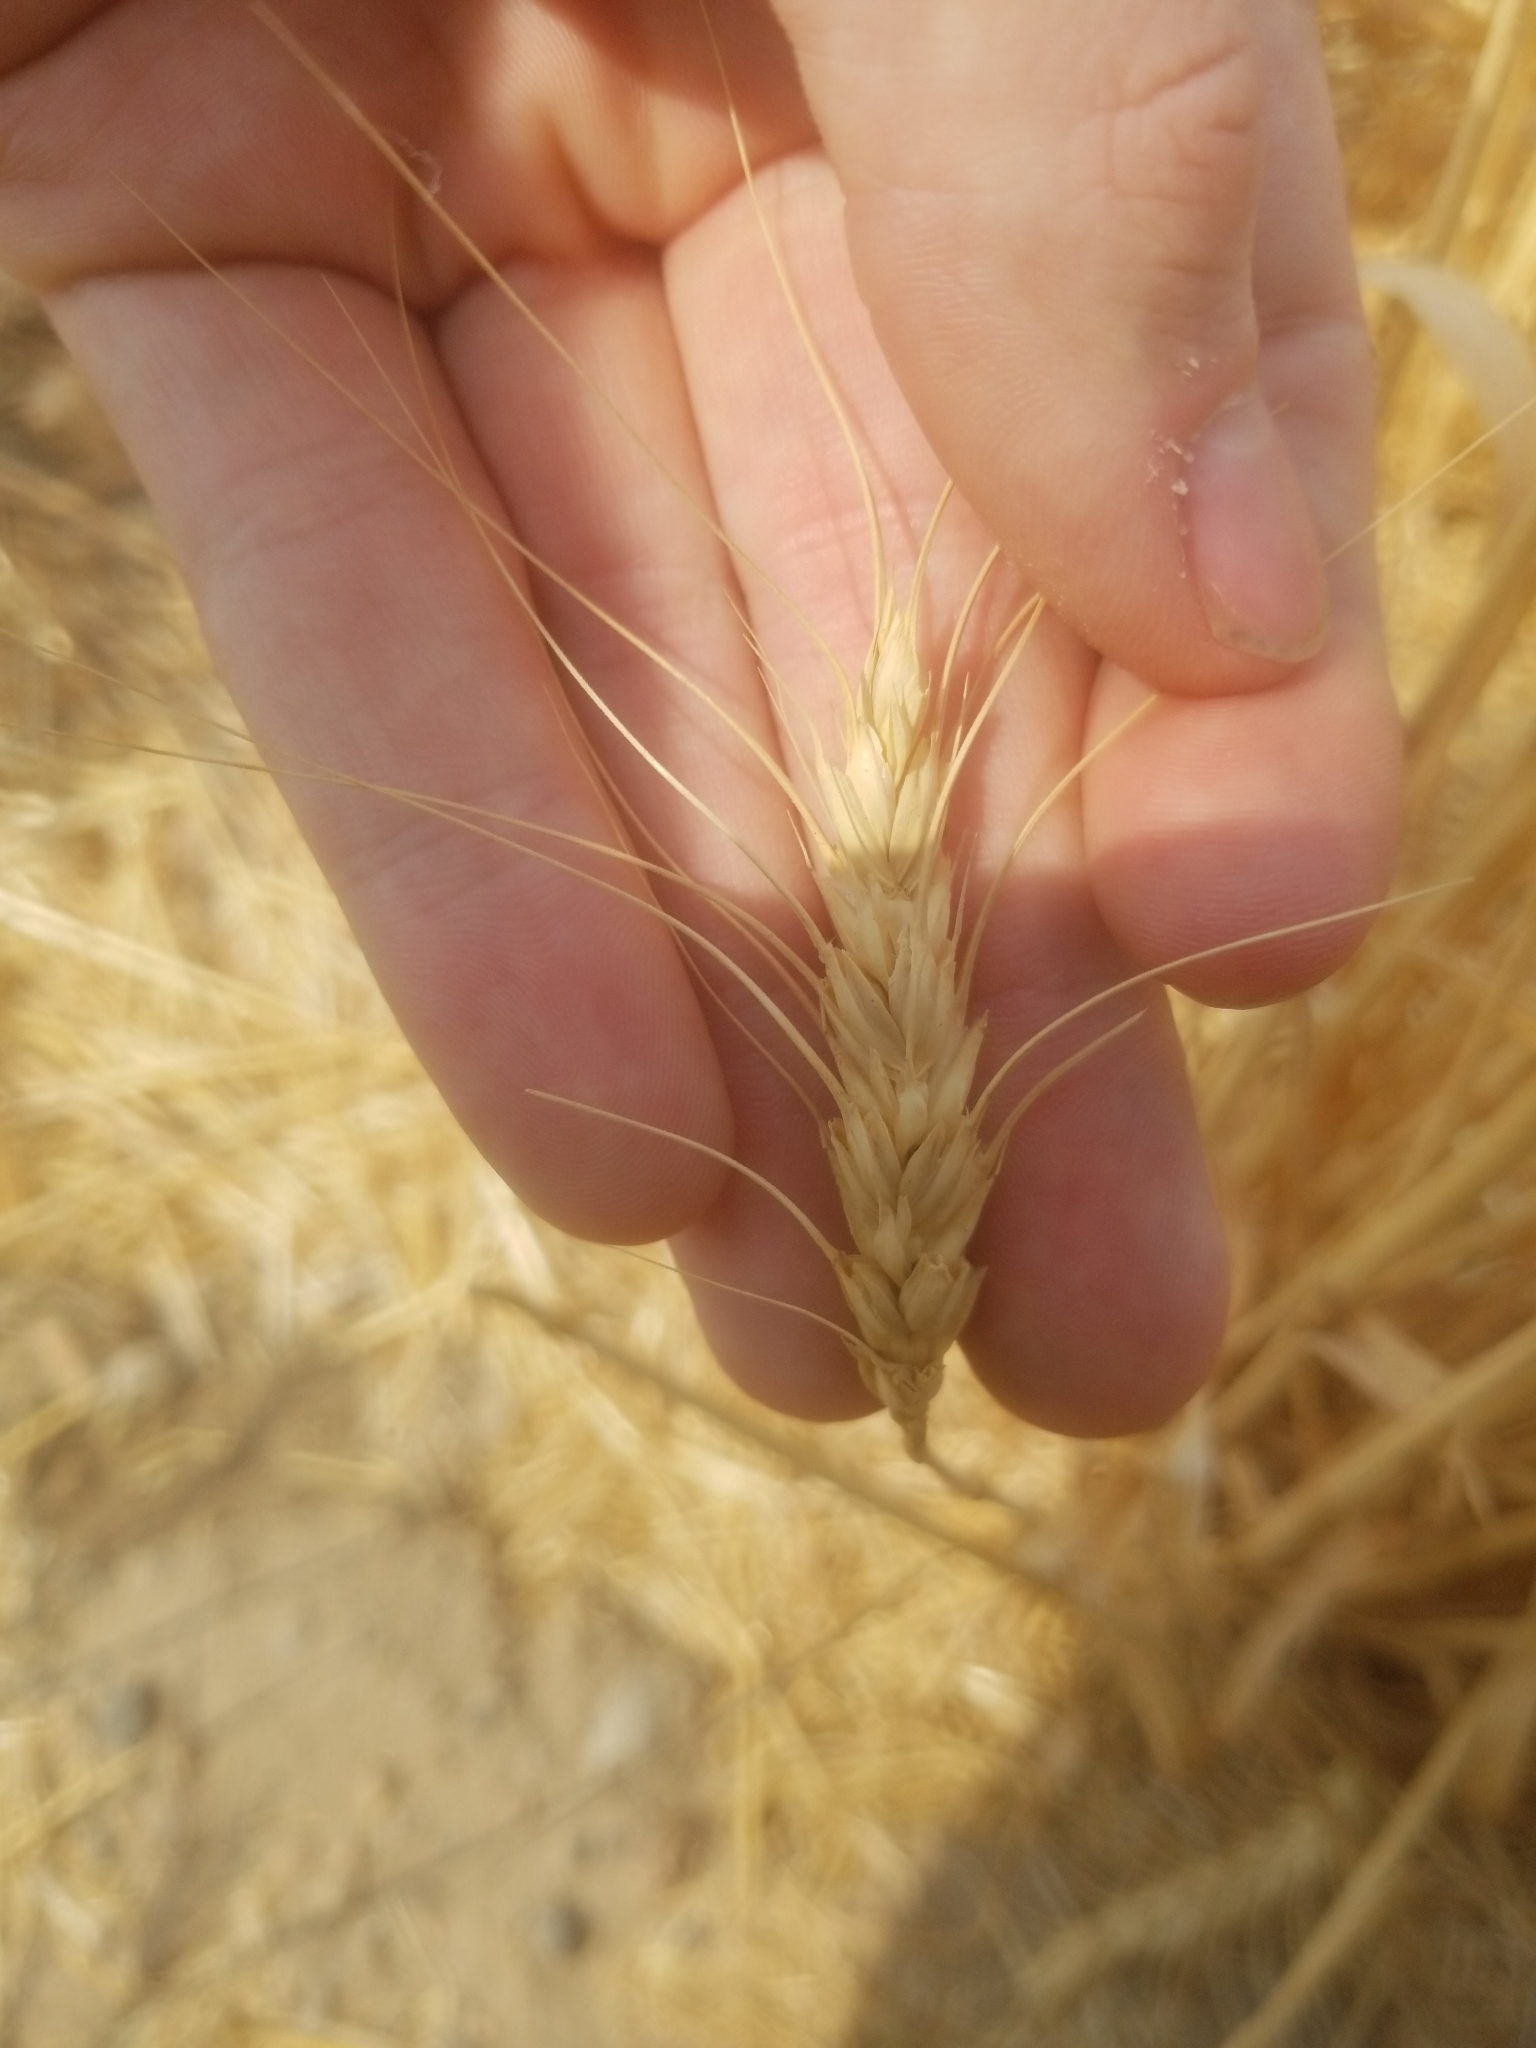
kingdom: Plantae
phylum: Tracheophyta
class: Liliopsida
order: Poales
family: Poaceae
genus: Triticum
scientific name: Triticum aestivum
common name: Common wheat
